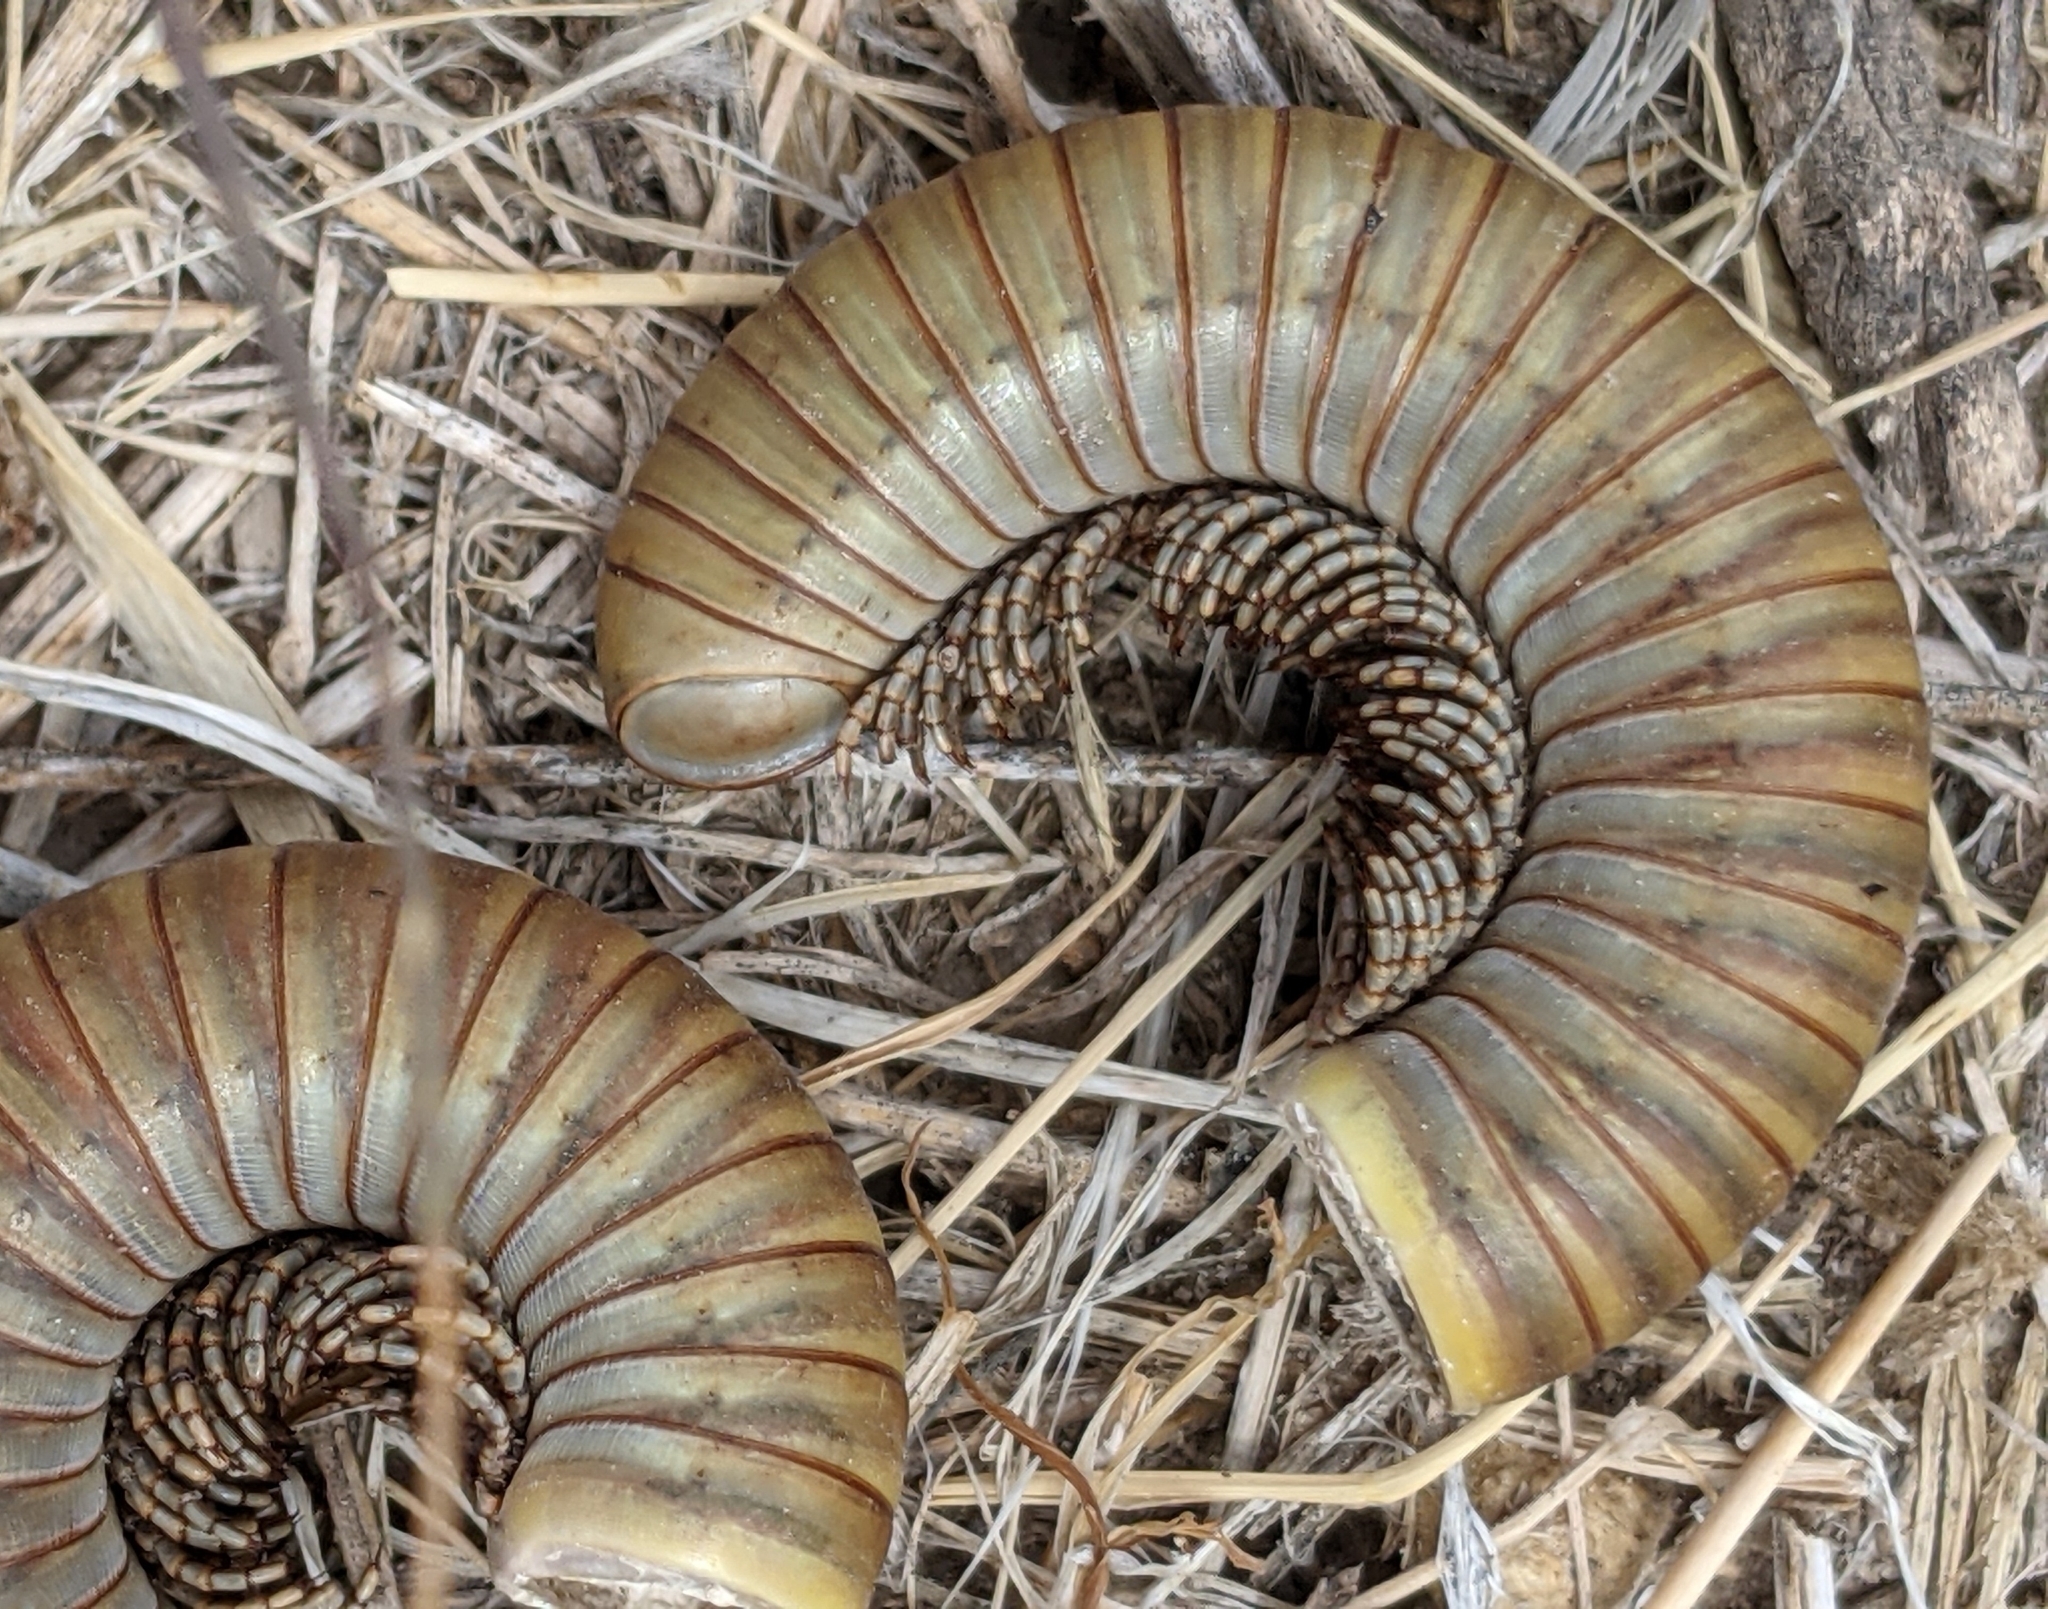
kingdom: Animalia
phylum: Arthropoda
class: Diplopoda
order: Spirostreptida
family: Spirostreptidae
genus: Orthoporus
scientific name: Orthoporus ornatus
